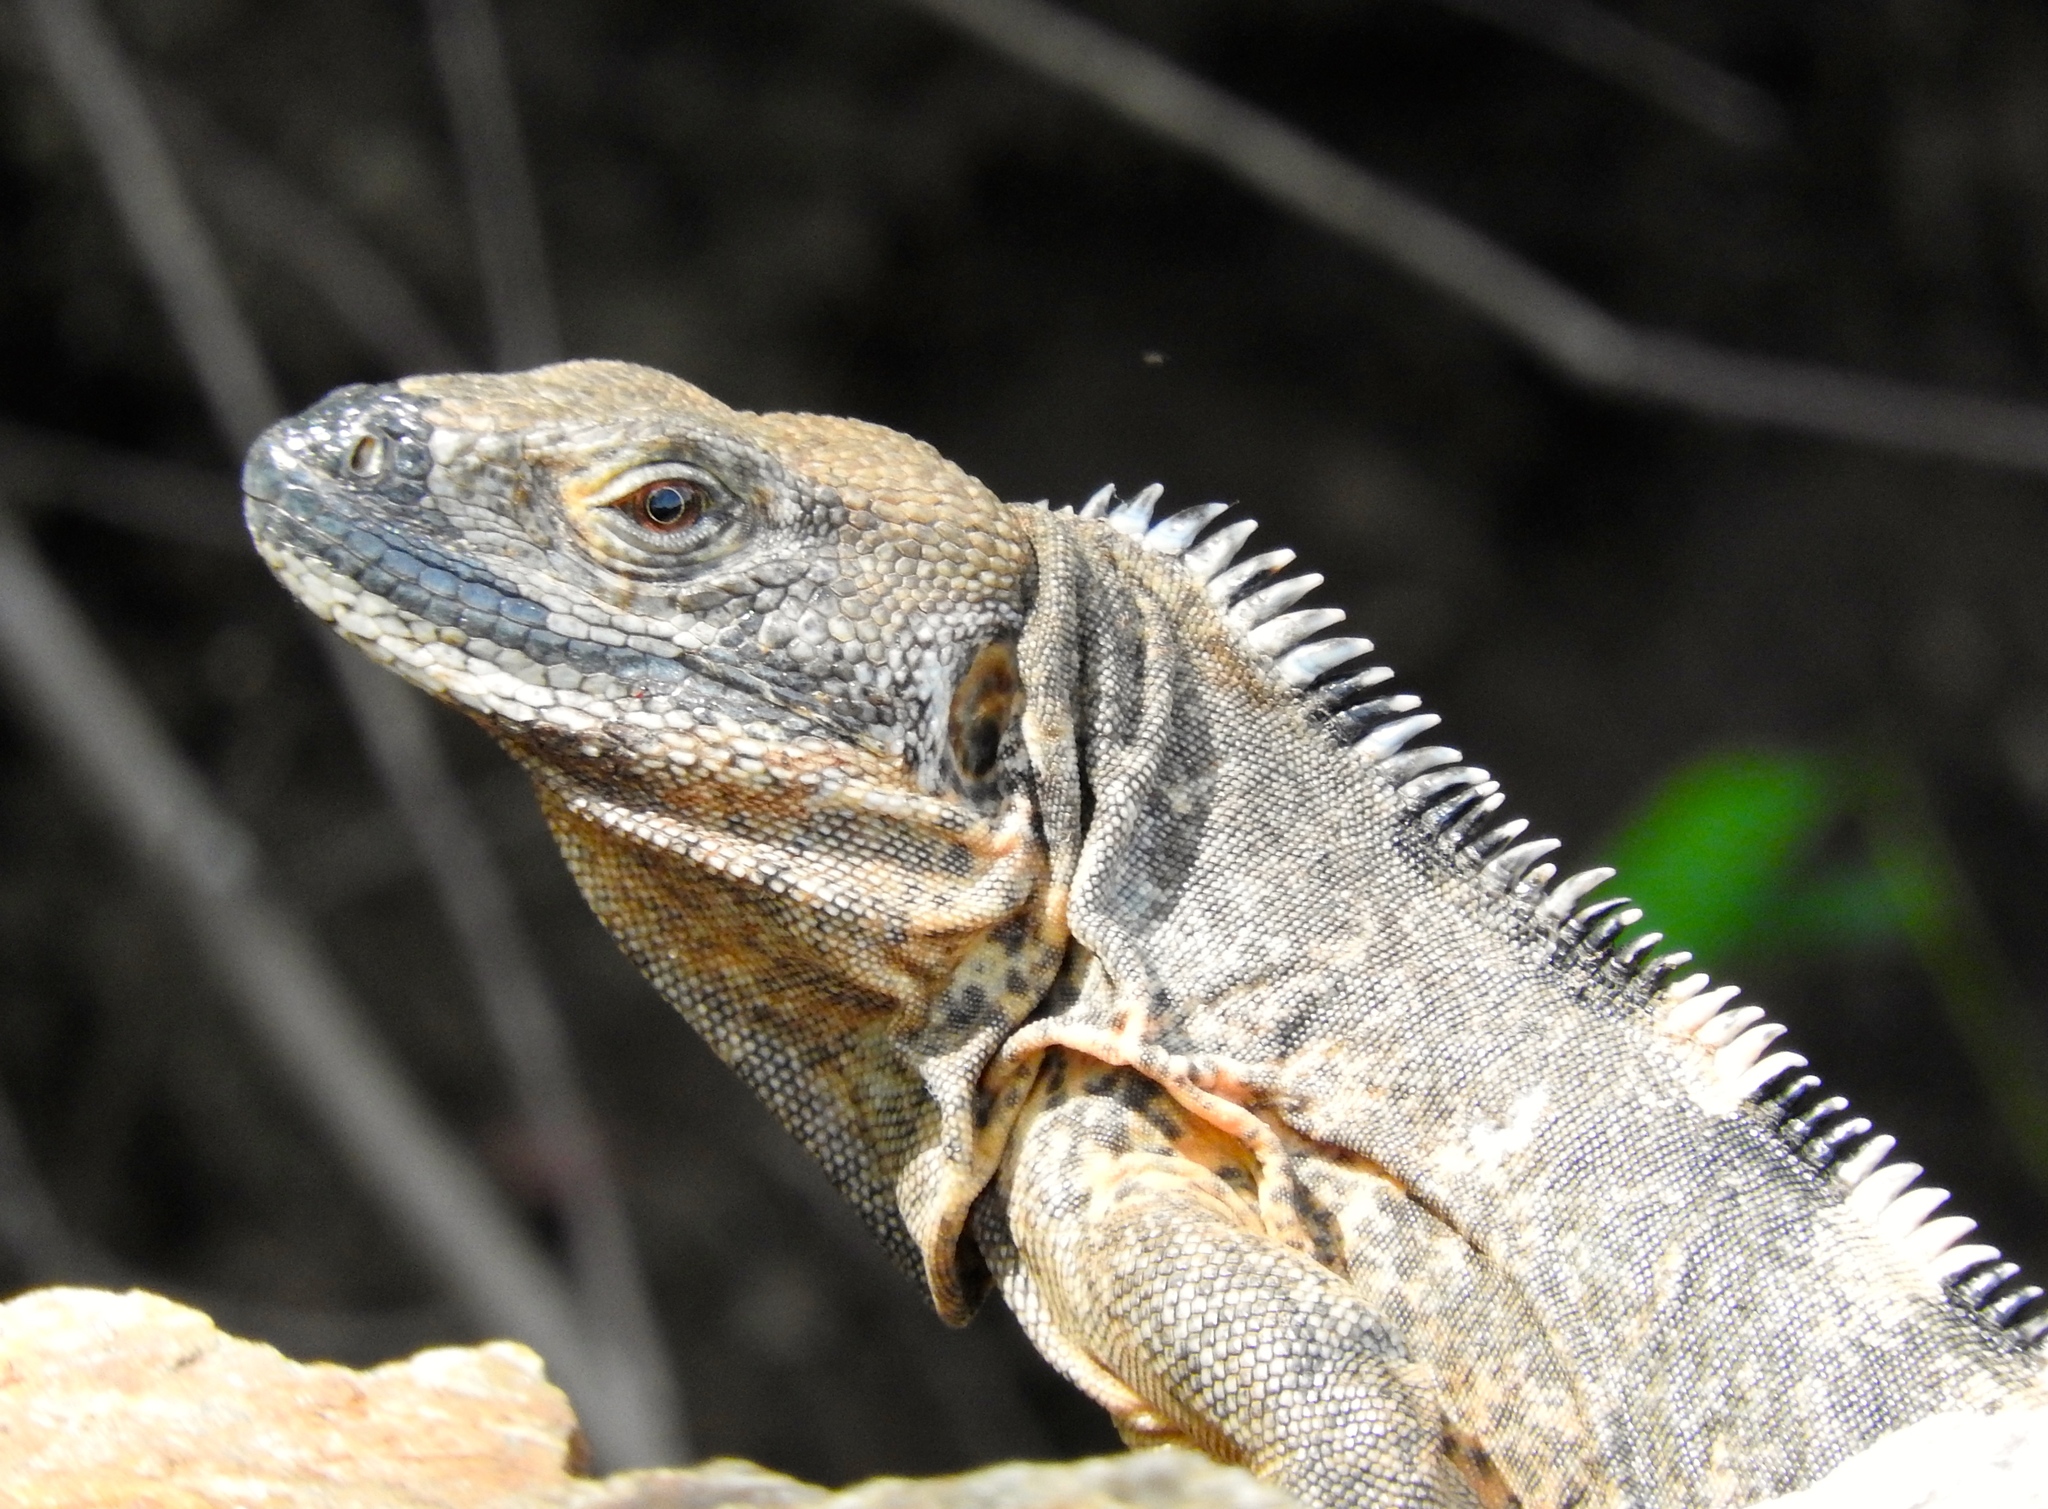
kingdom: Animalia
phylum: Chordata
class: Squamata
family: Iguanidae
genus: Ctenosaura
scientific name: Ctenosaura pectinata
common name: Guerreran spiny-tailed iguana
